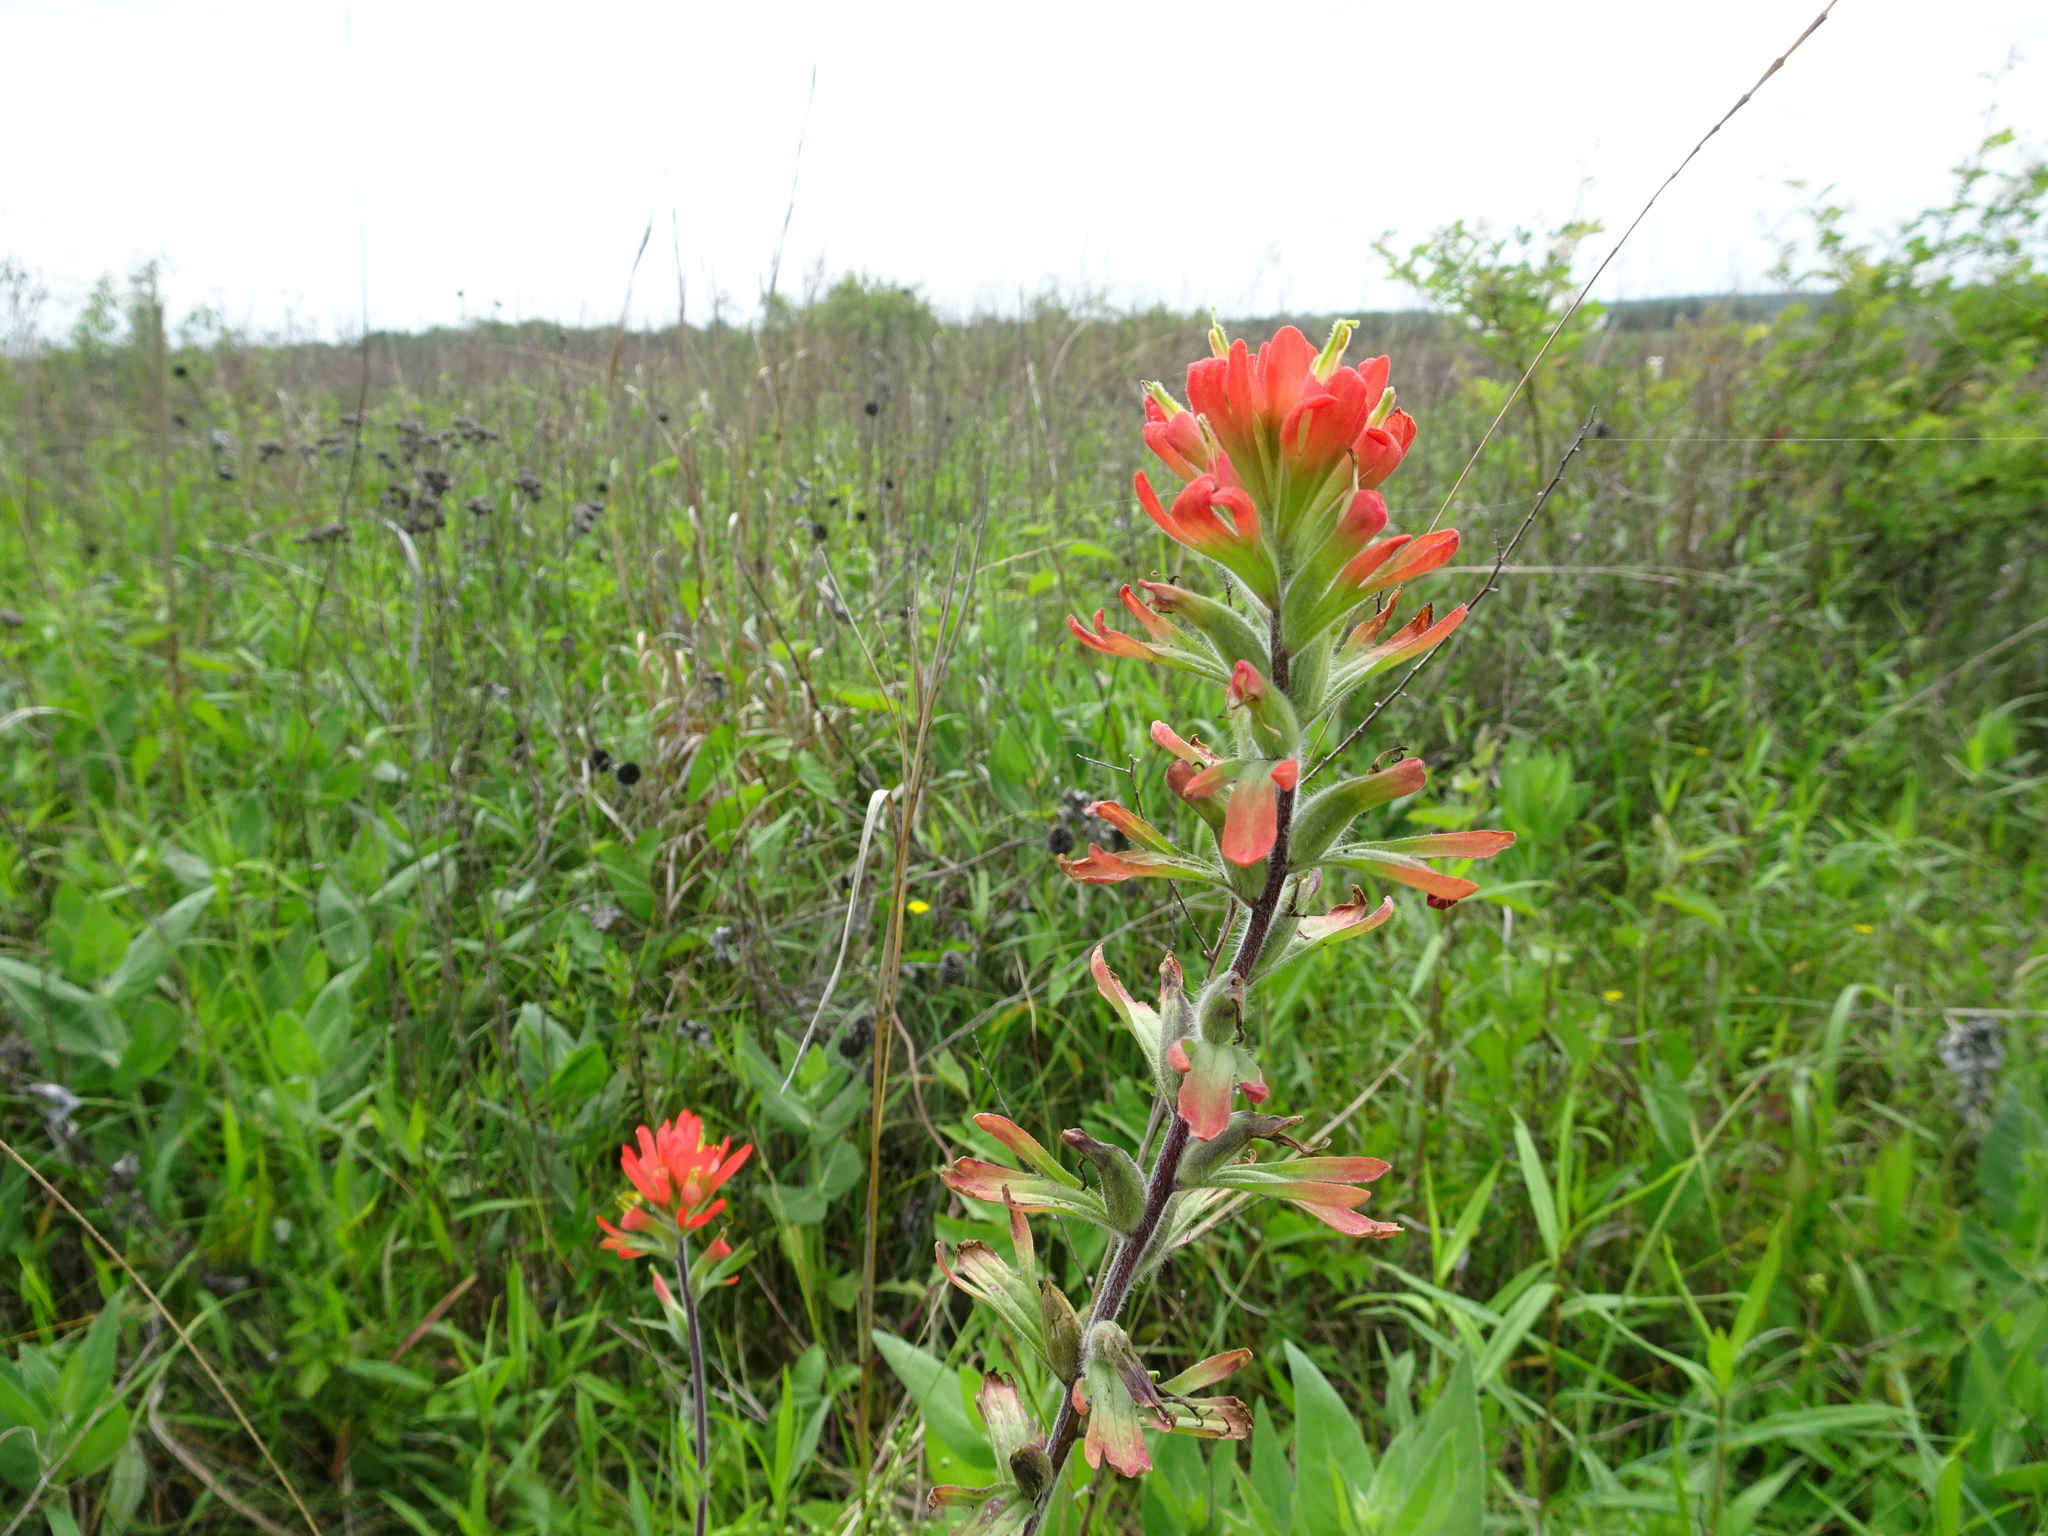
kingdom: Plantae
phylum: Tracheophyta
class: Magnoliopsida
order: Lamiales
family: Orobanchaceae
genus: Castilleja
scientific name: Castilleja coccinea
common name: Scarlet paintbrush
